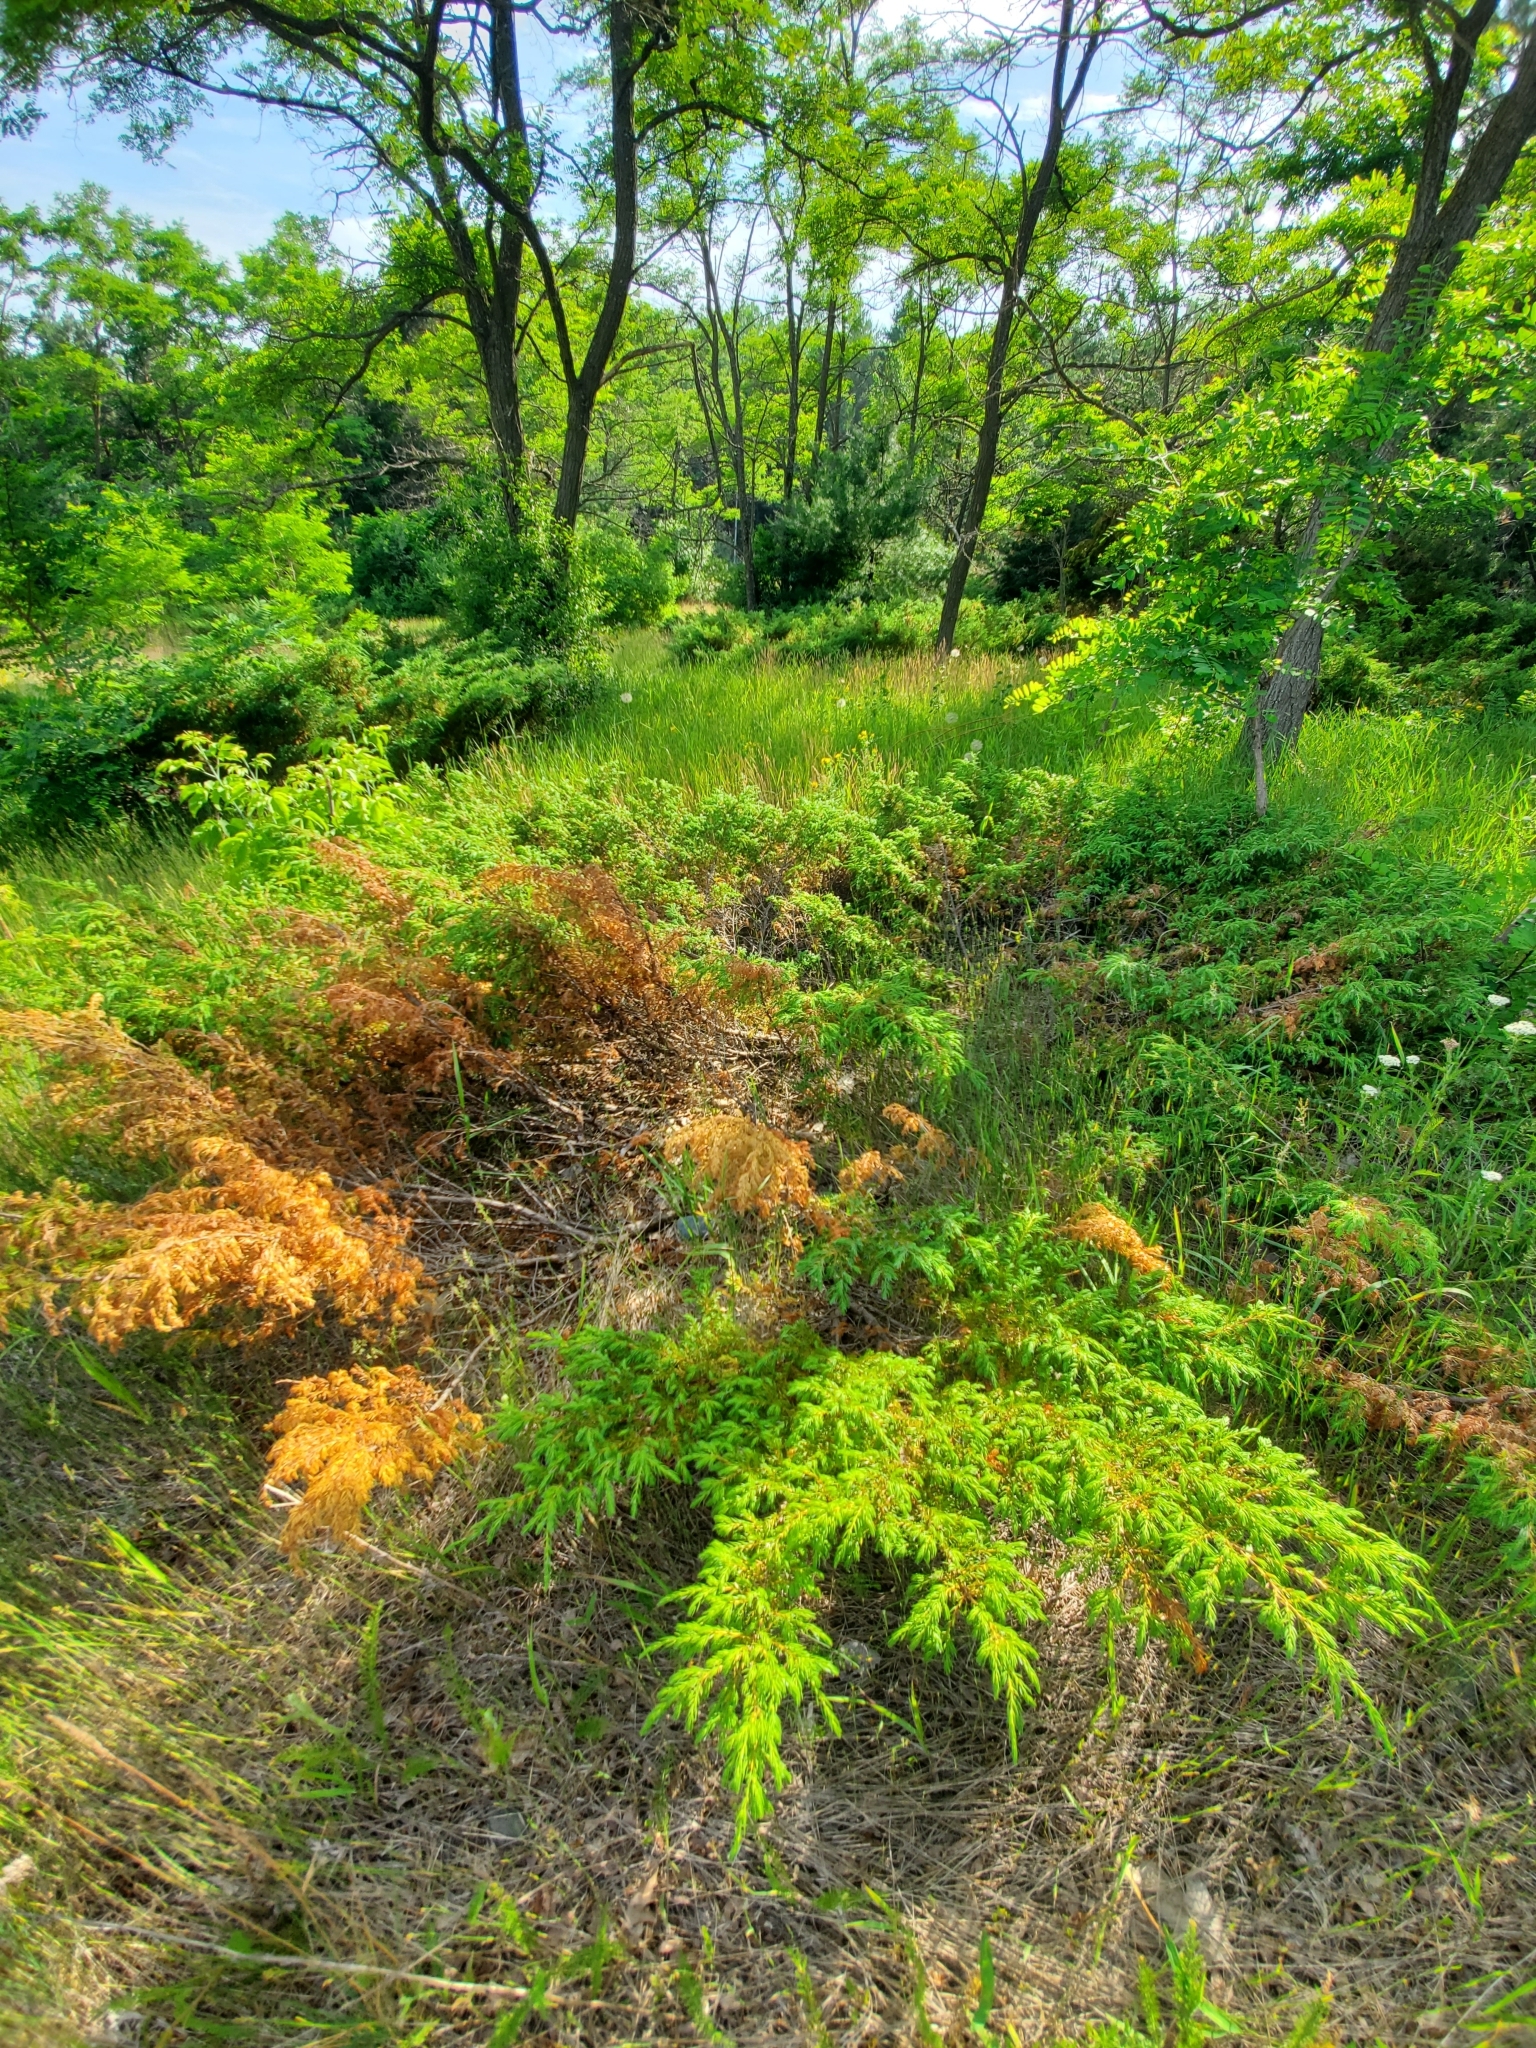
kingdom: Plantae
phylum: Tracheophyta
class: Pinopsida
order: Pinales
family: Cupressaceae
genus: Juniperus
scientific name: Juniperus communis
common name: Common juniper
